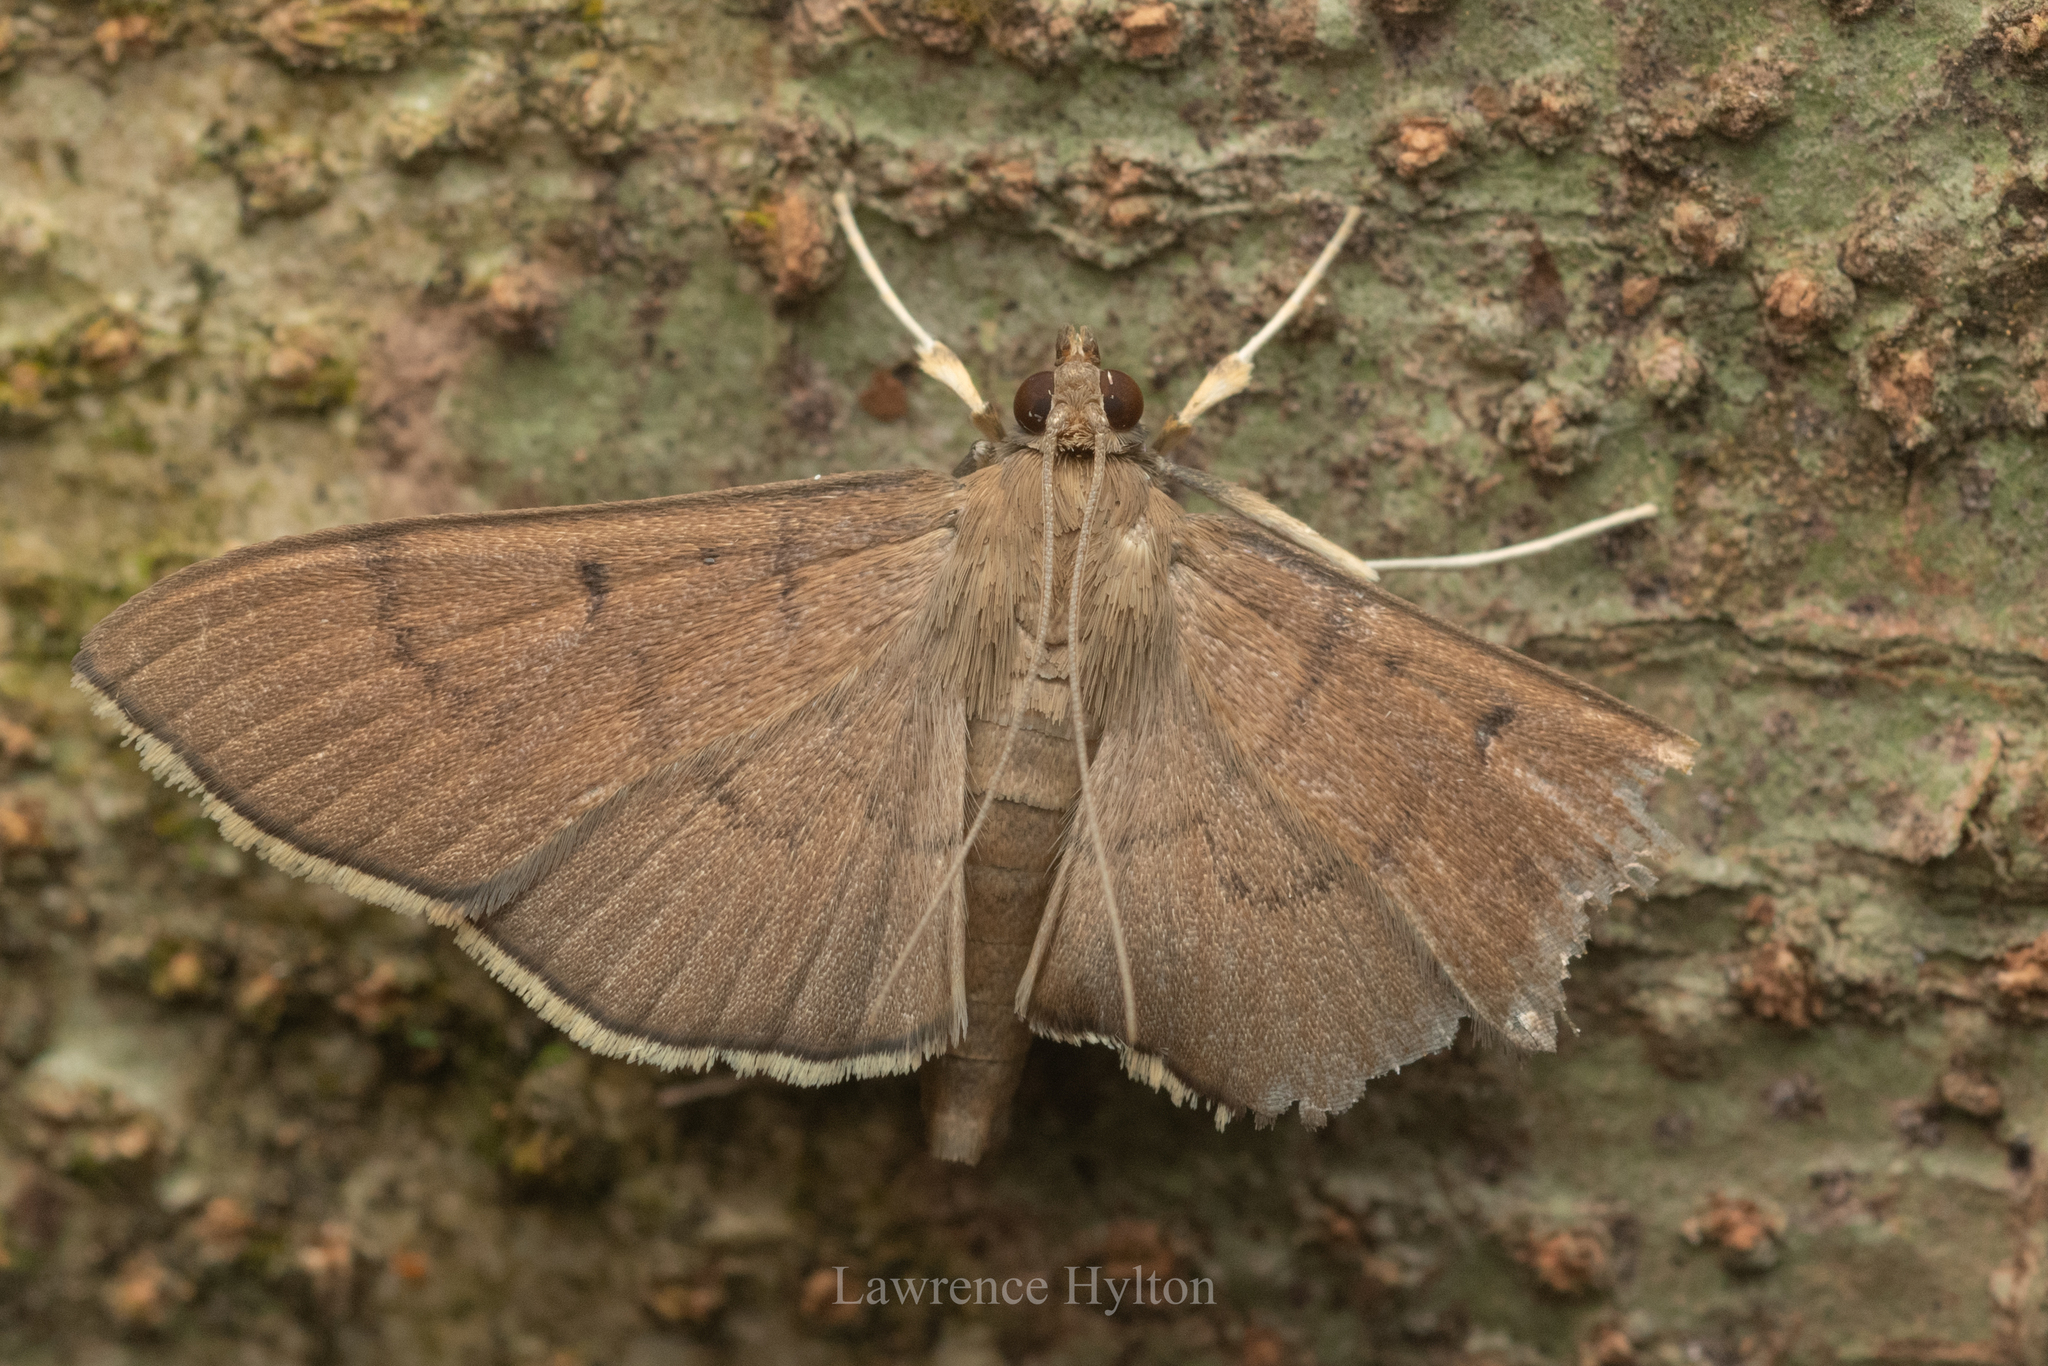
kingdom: Animalia
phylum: Arthropoda
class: Insecta
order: Lepidoptera
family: Crambidae
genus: Lamprosema
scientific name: Lamprosema tristrialis
